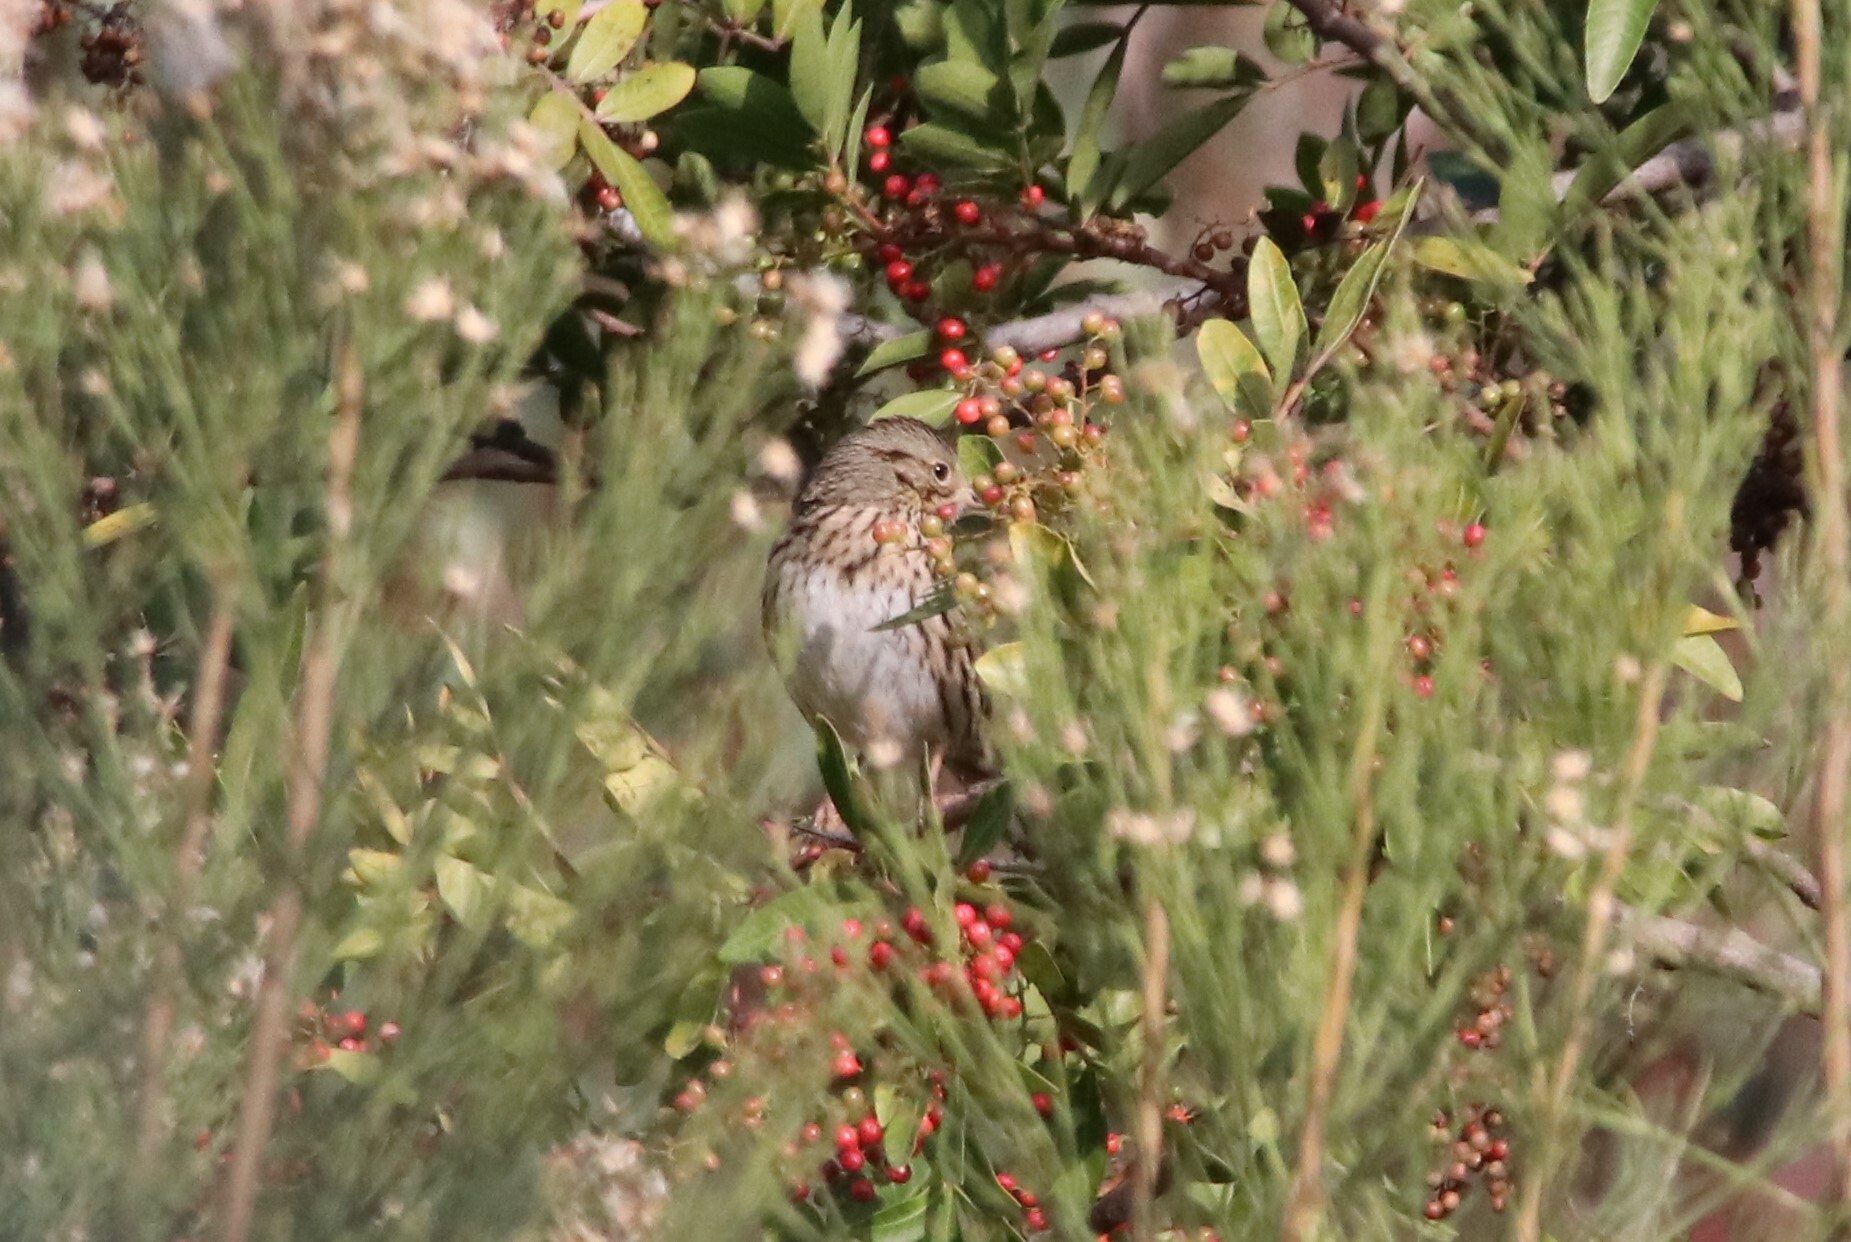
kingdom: Animalia
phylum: Chordata
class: Aves
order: Passeriformes
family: Passerellidae
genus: Melospiza
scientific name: Melospiza lincolnii
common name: Lincoln's sparrow
